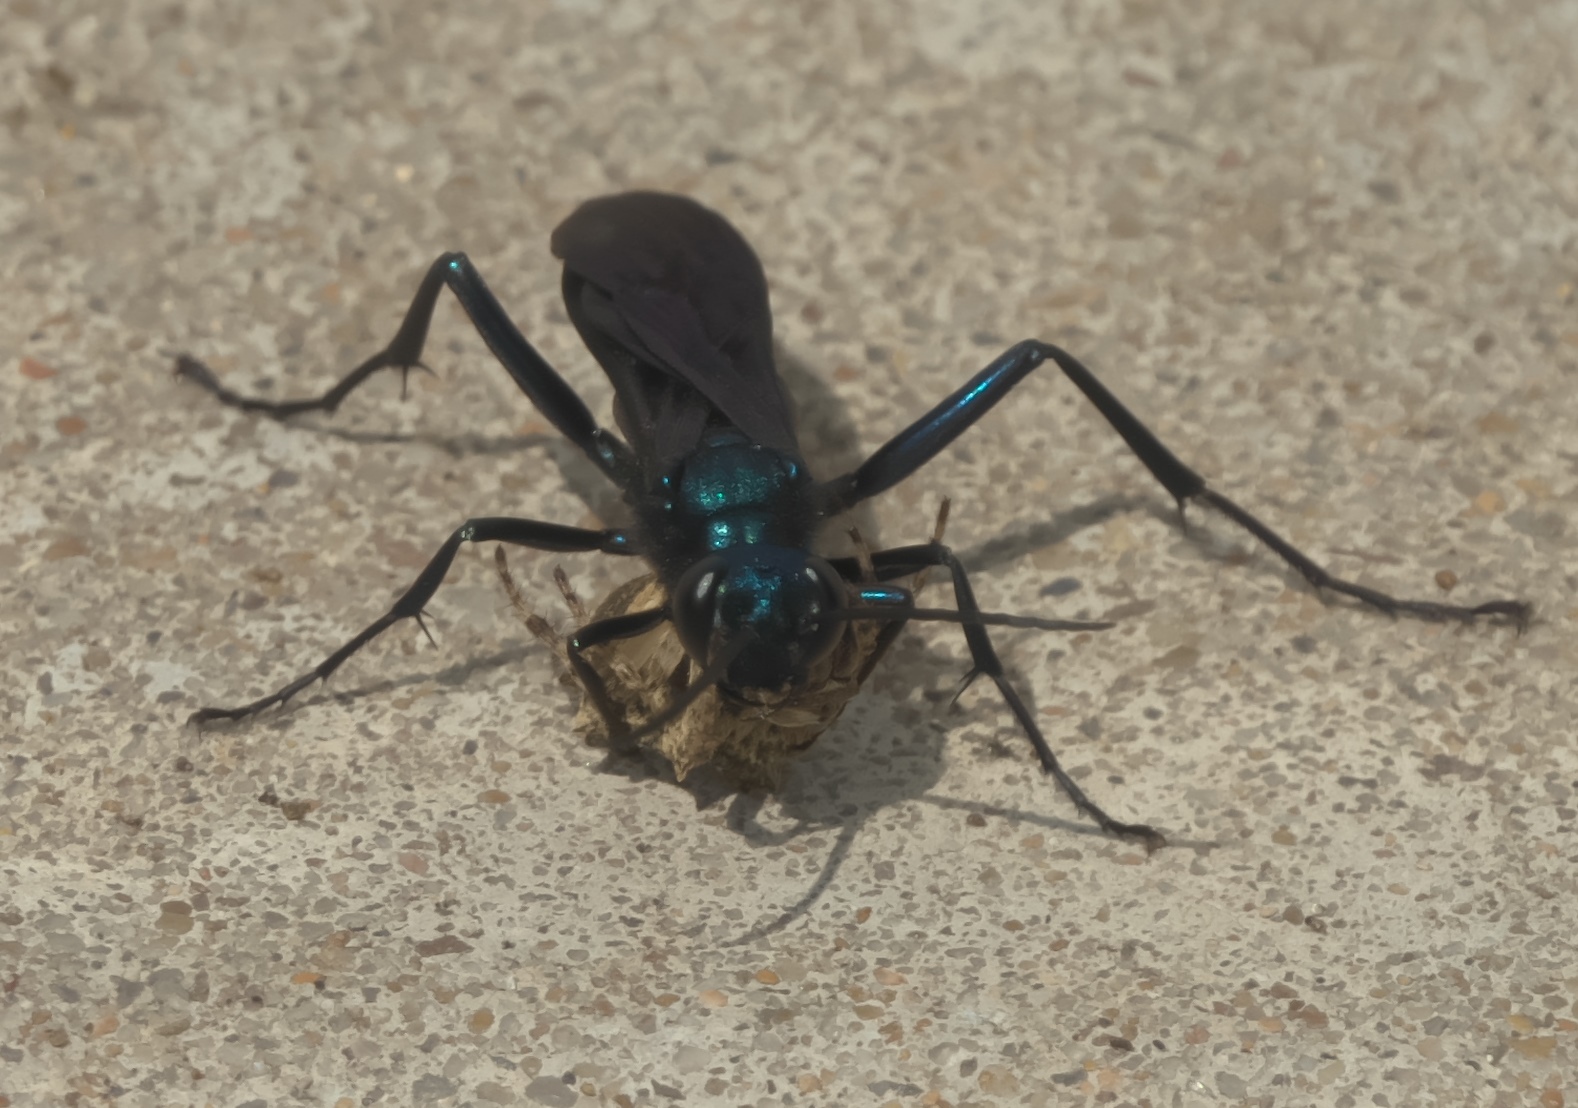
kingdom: Animalia
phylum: Arthropoda
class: Insecta
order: Hymenoptera
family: Sphecidae
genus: Chalybion
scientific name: Chalybion californicum
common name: Mud dauber
